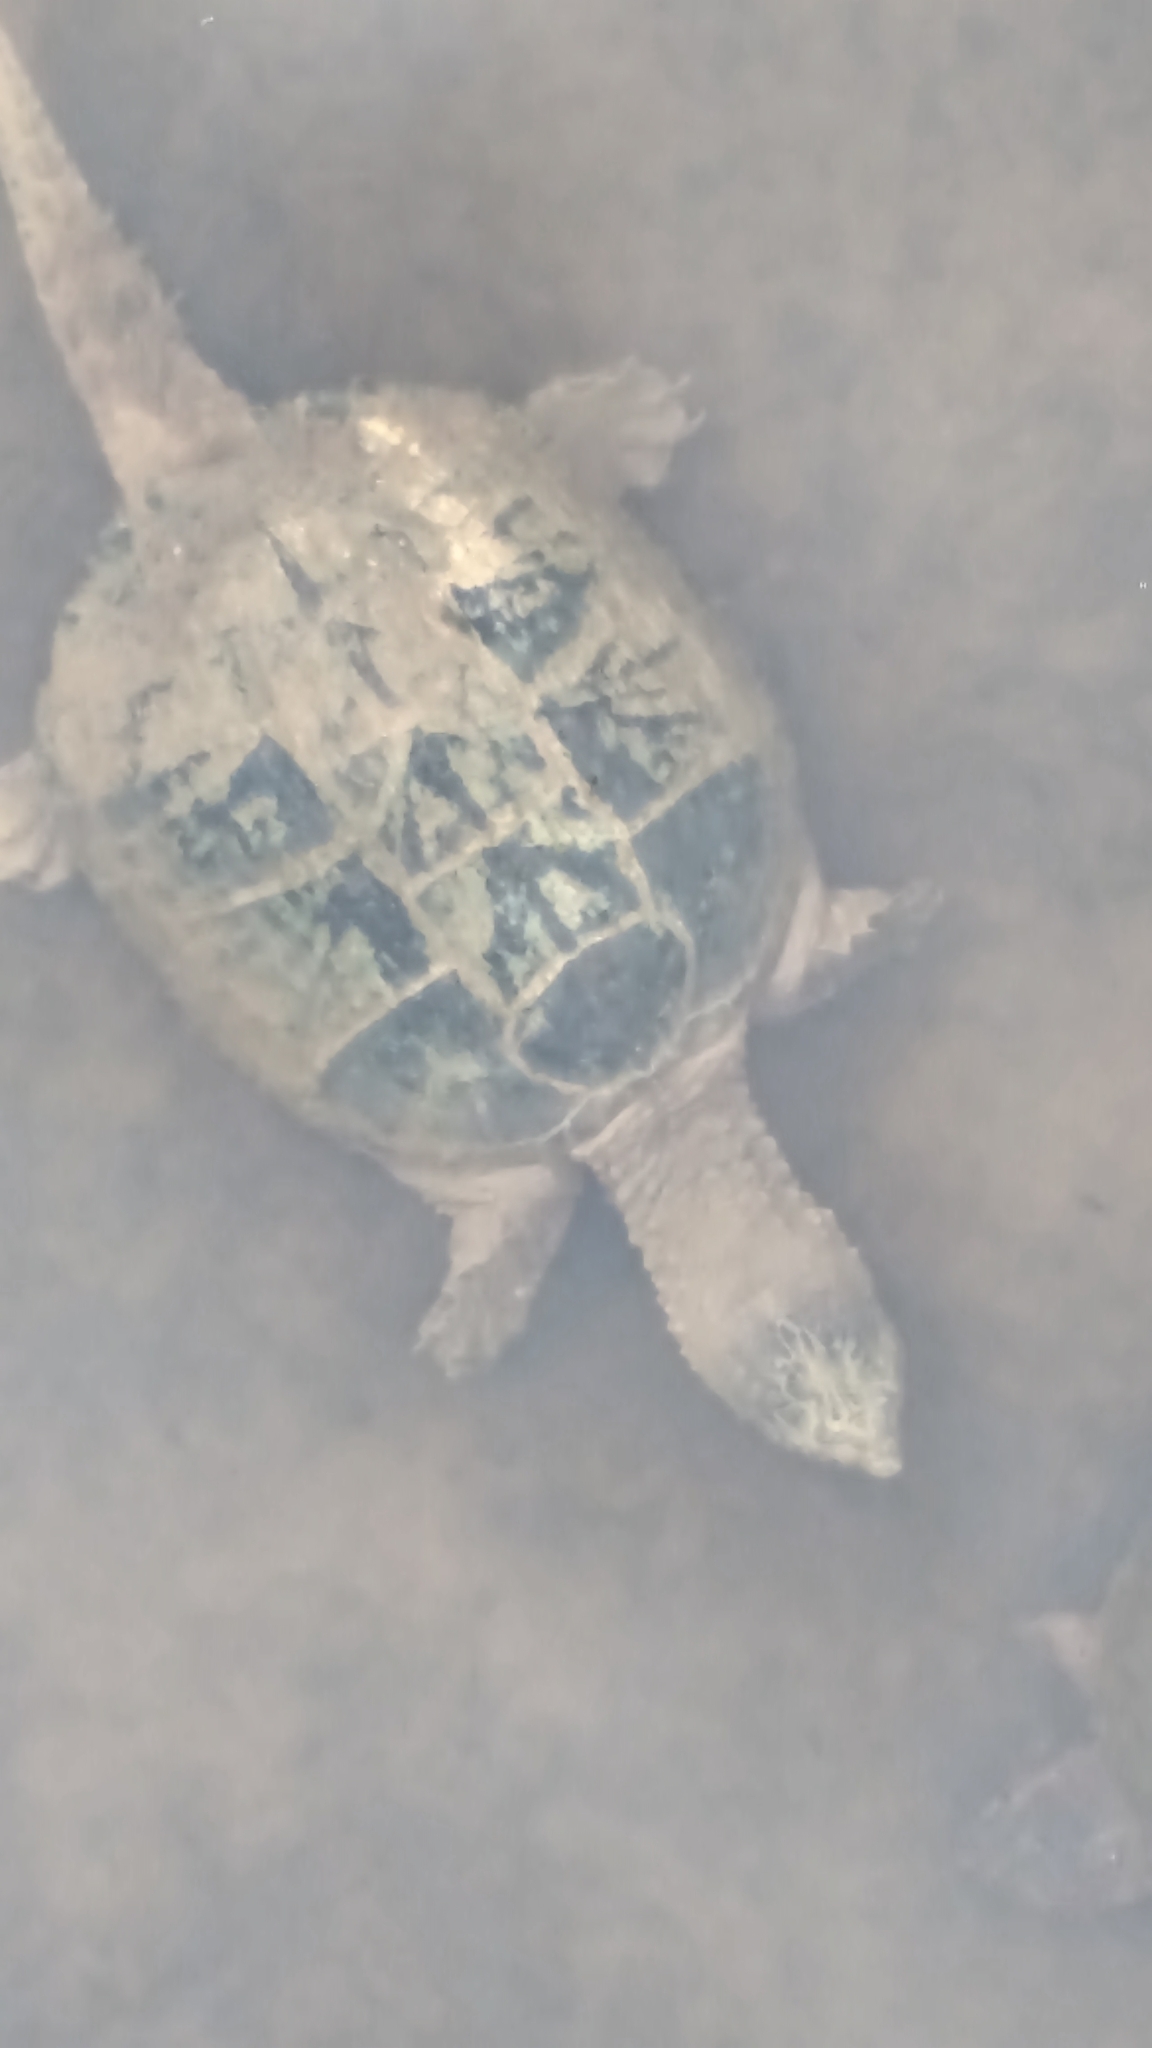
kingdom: Animalia
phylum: Chordata
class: Testudines
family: Chelydridae
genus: Chelydra
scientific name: Chelydra serpentina
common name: Common snapping turtle
